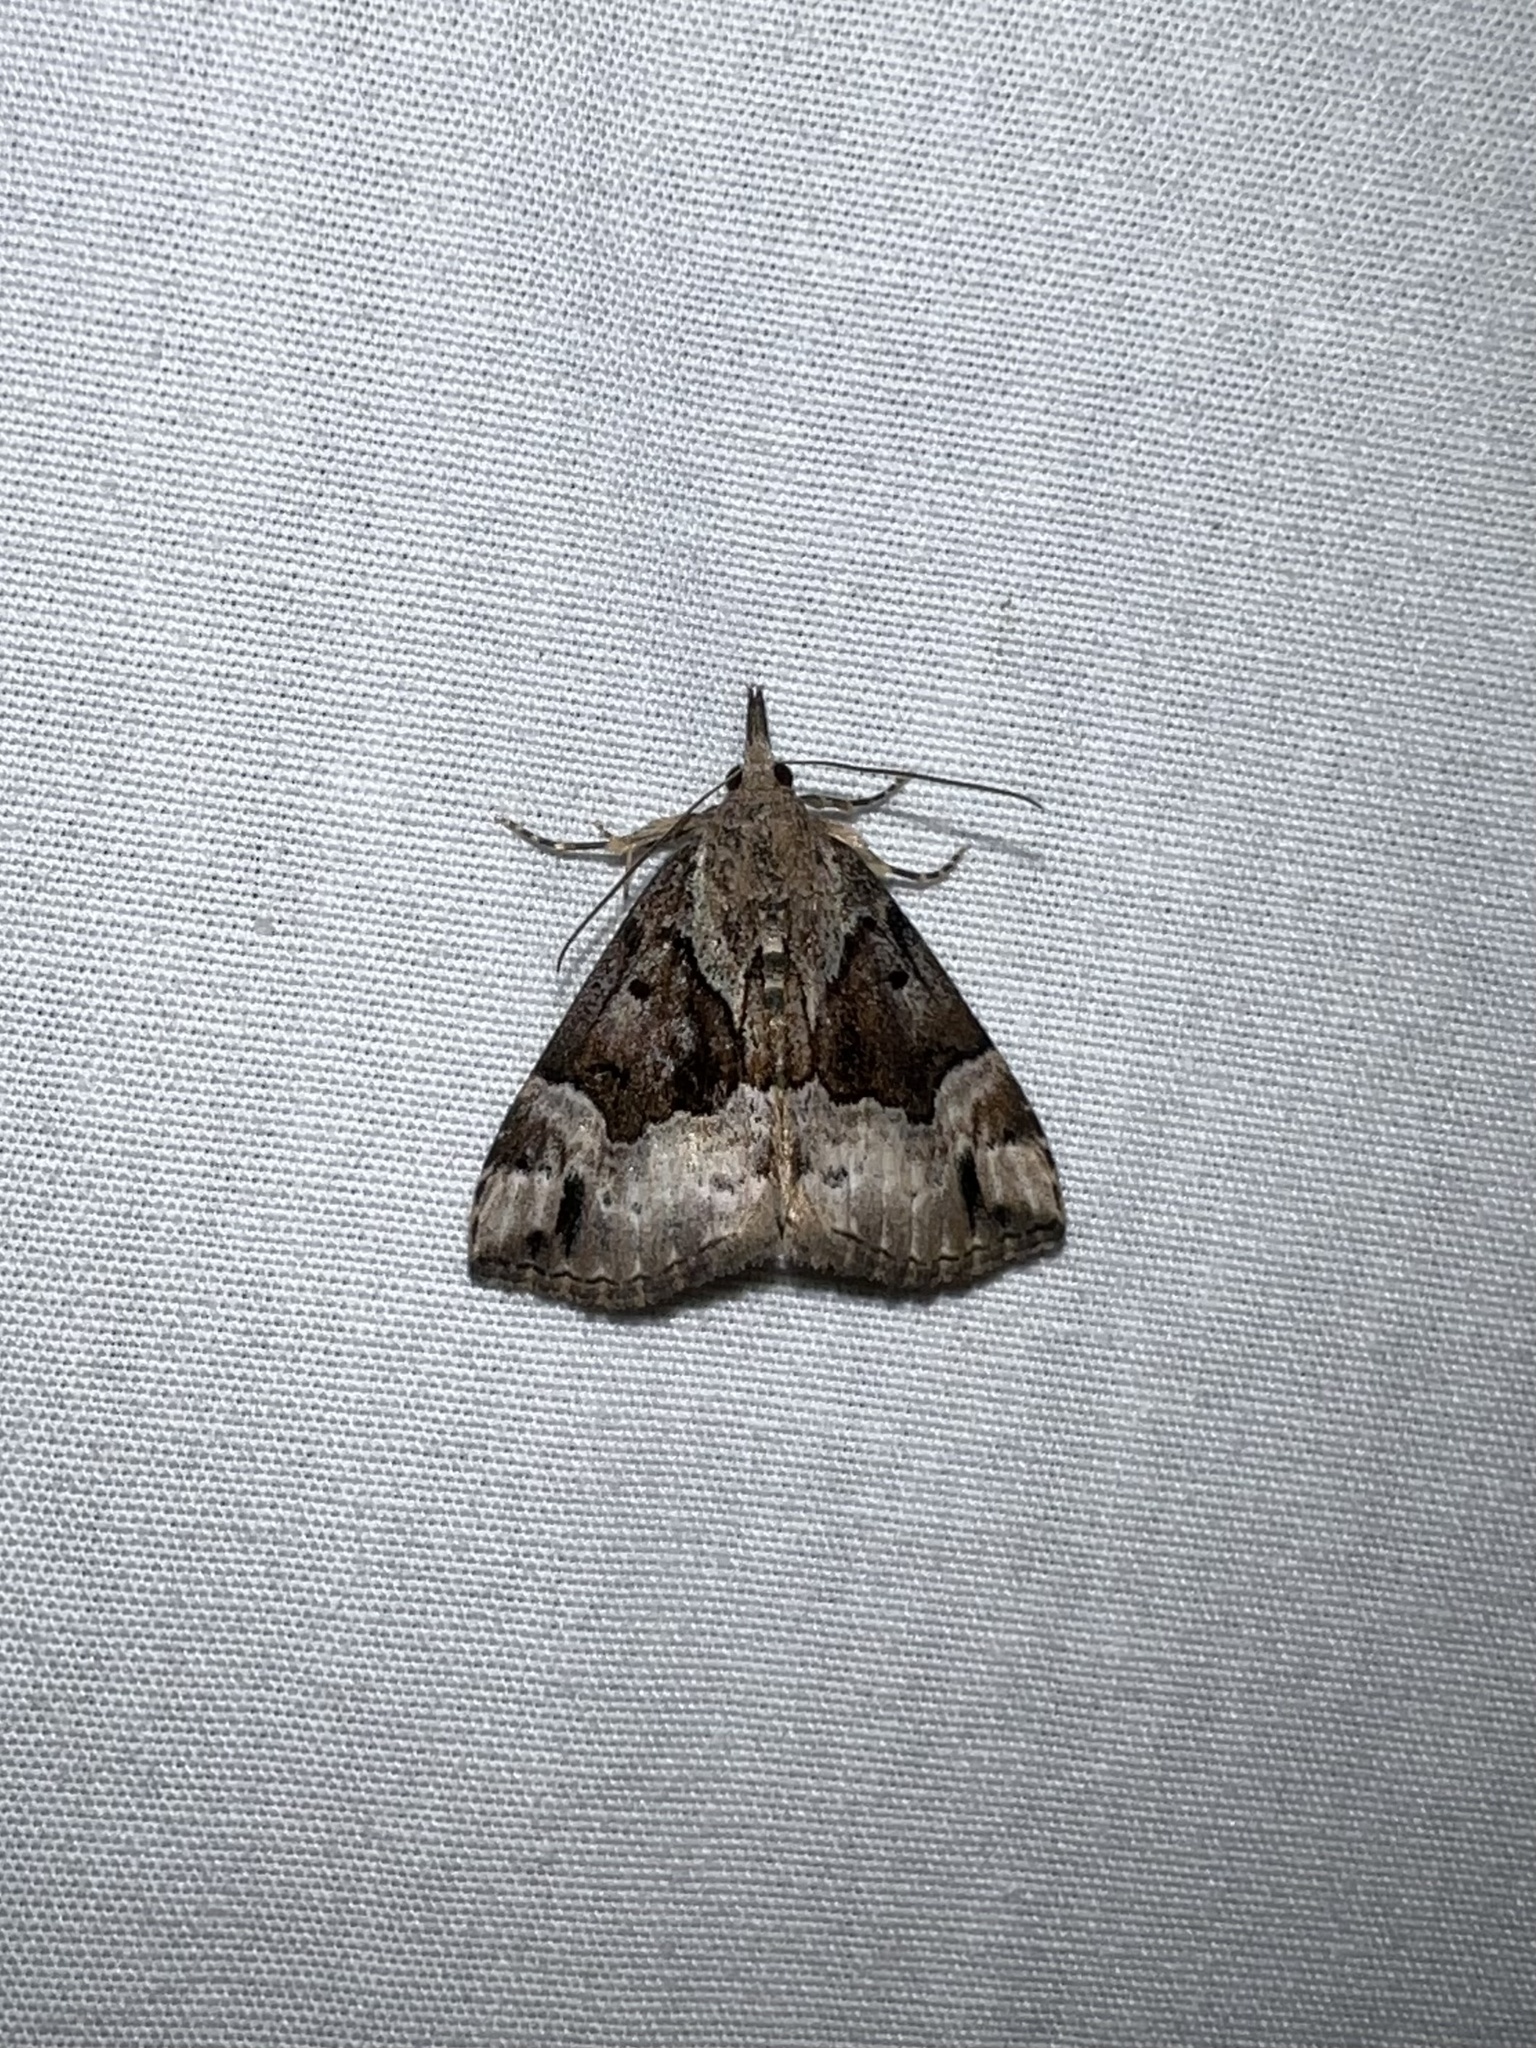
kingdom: Animalia
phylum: Arthropoda
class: Insecta
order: Lepidoptera
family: Erebidae
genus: Hypena
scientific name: Hypena palparia
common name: Mottled bomolocha moth
